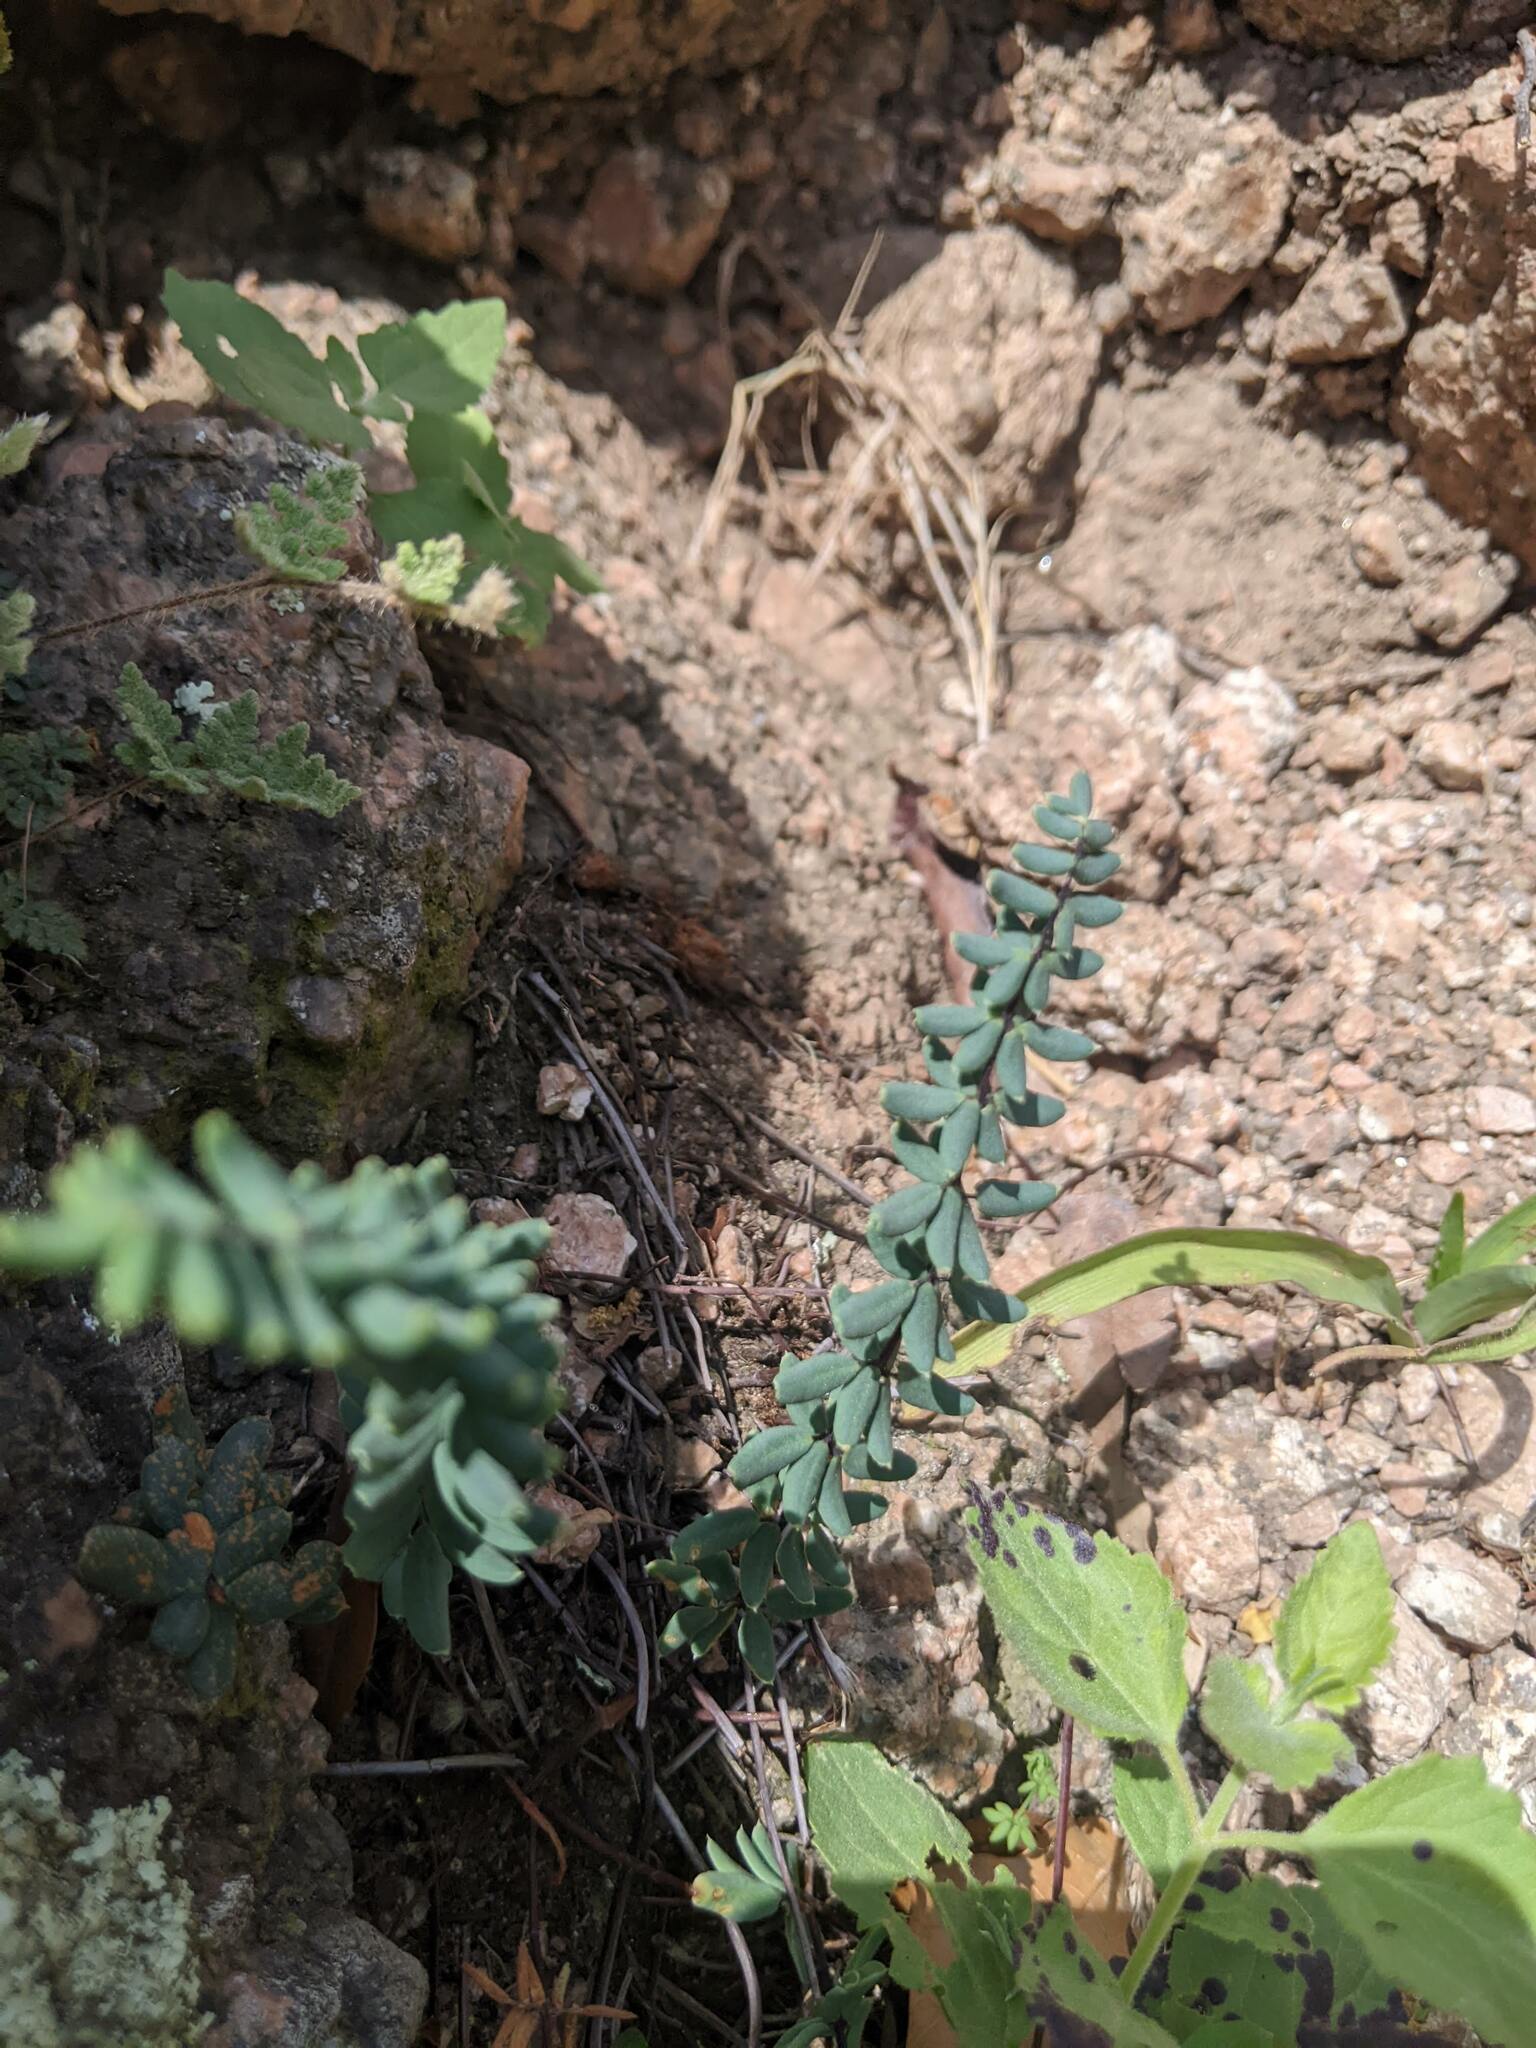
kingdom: Plantae
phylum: Tracheophyta
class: Polypodiopsida
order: Polypodiales
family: Pteridaceae
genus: Pellaea
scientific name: Pellaea wrightiana
